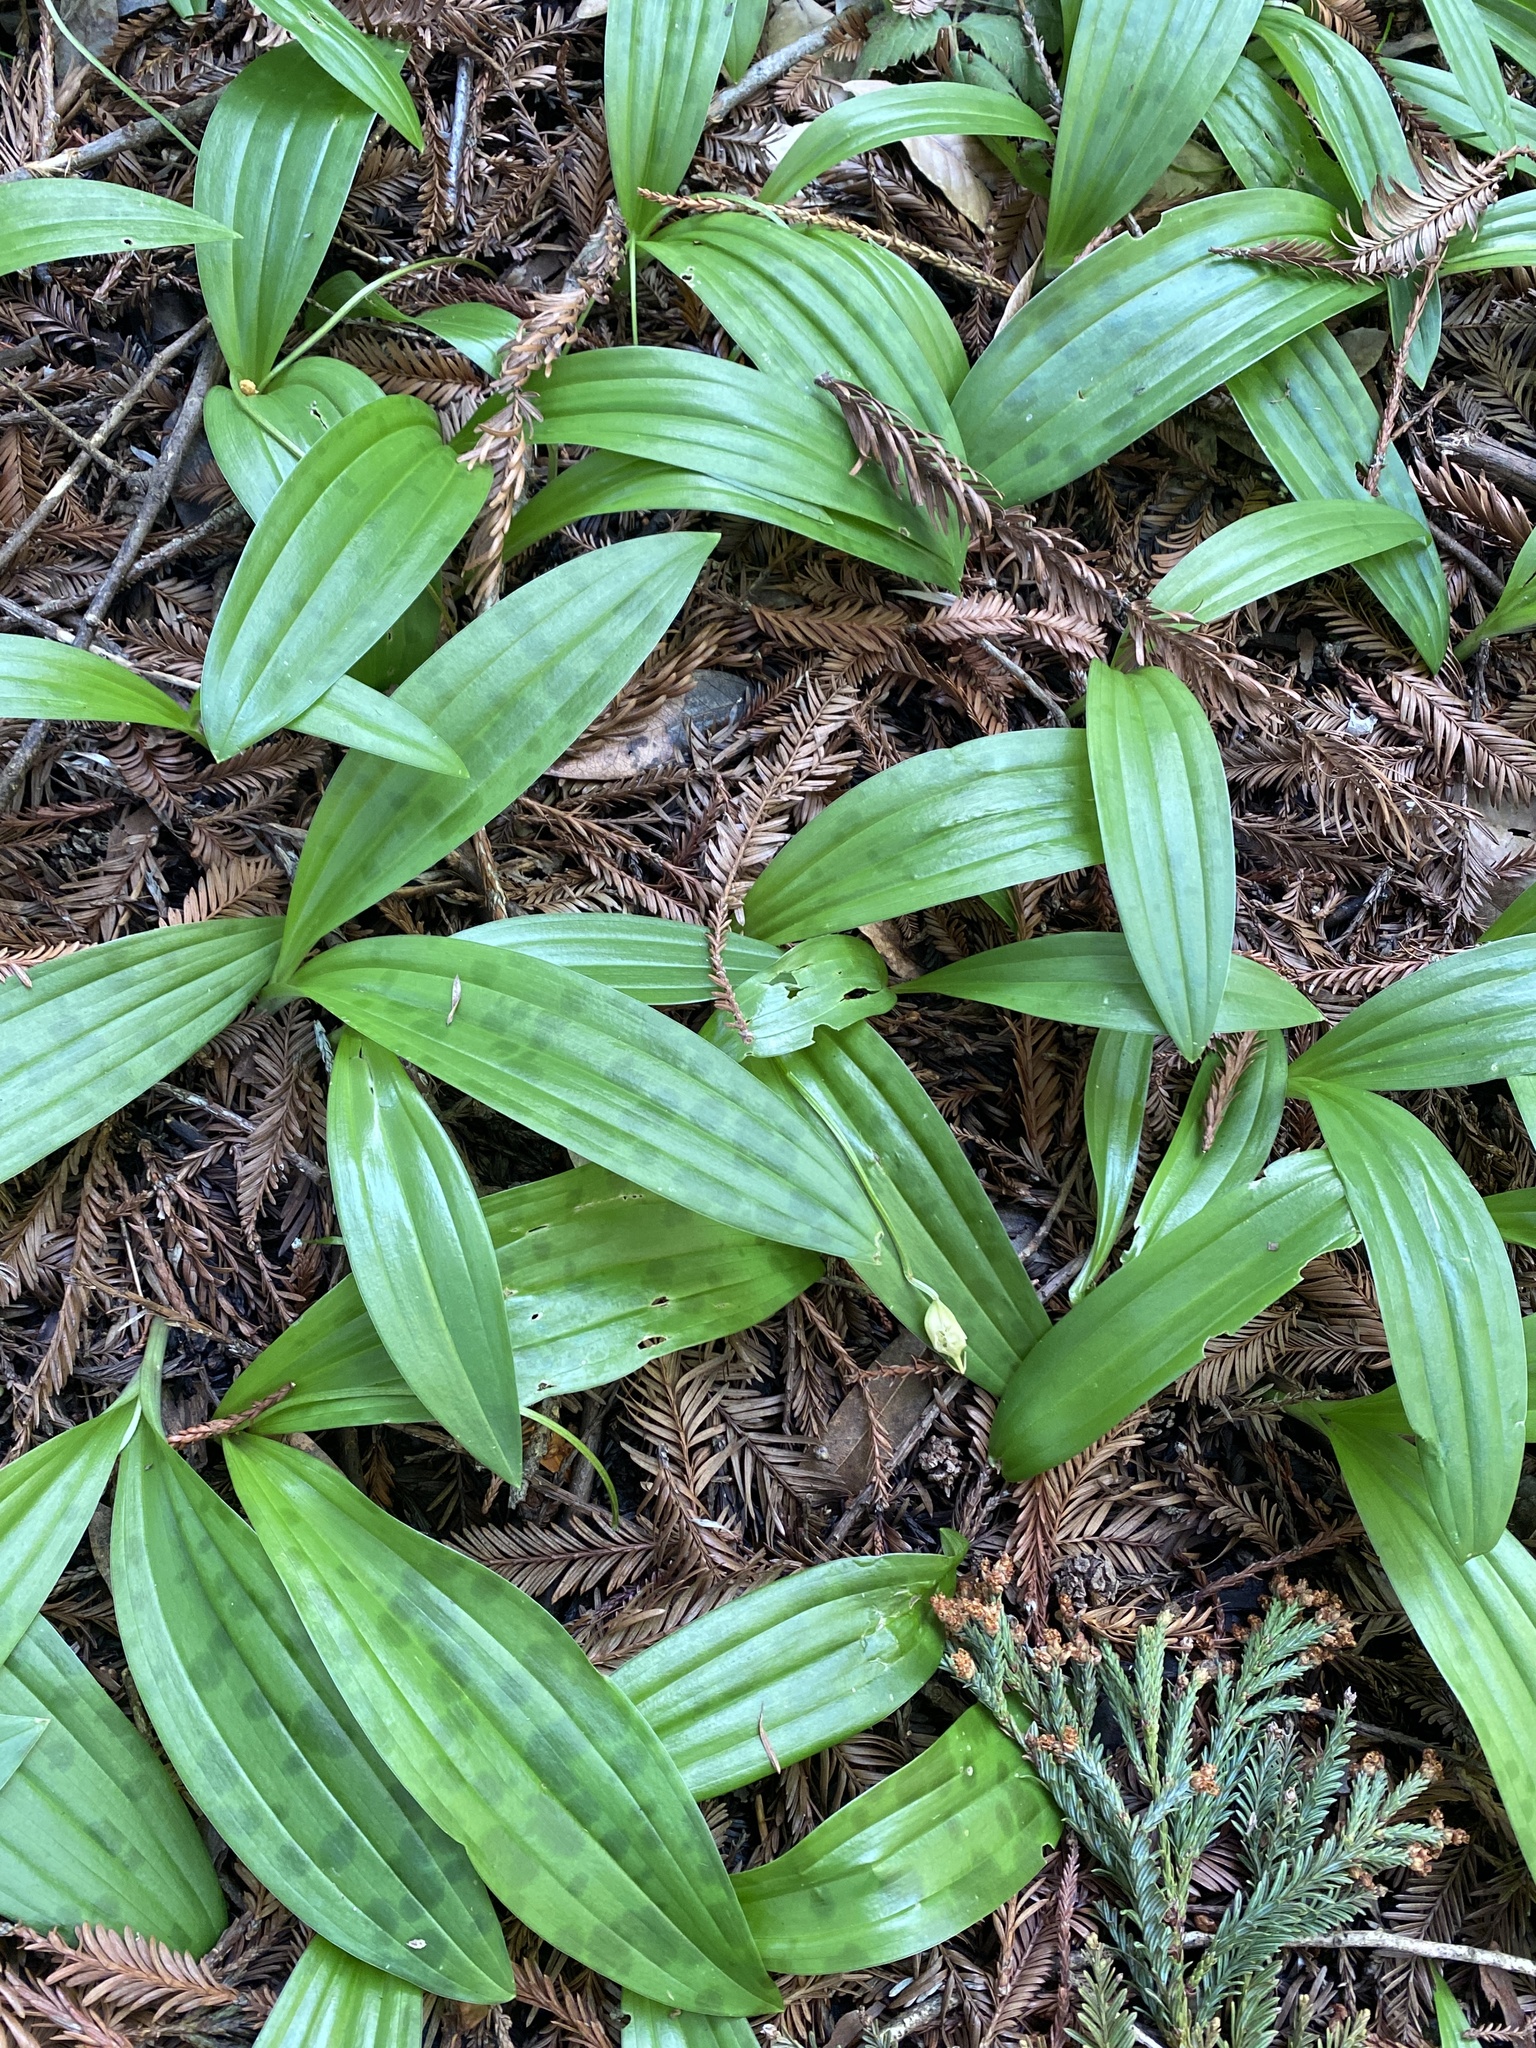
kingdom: Plantae
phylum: Tracheophyta
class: Liliopsida
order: Liliales
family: Liliaceae
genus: Scoliopus
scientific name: Scoliopus bigelovii
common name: Foetid adder's-tongue
